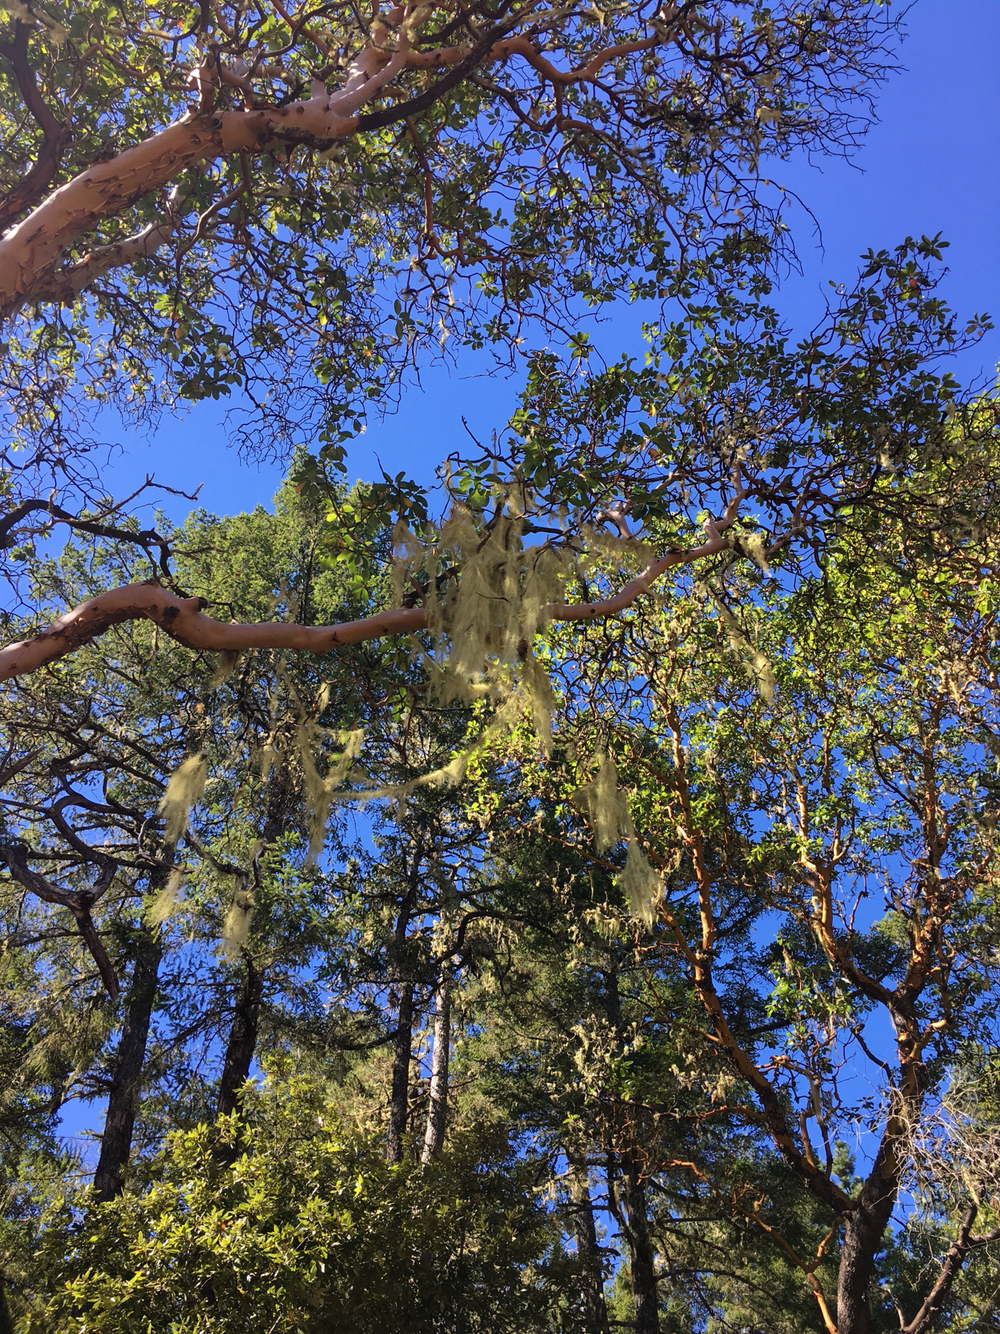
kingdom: Fungi
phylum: Ascomycota
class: Lecanoromycetes
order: Lecanorales
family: Ramalinaceae
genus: Ramalina
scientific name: Ramalina menziesii
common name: Lace lichen
